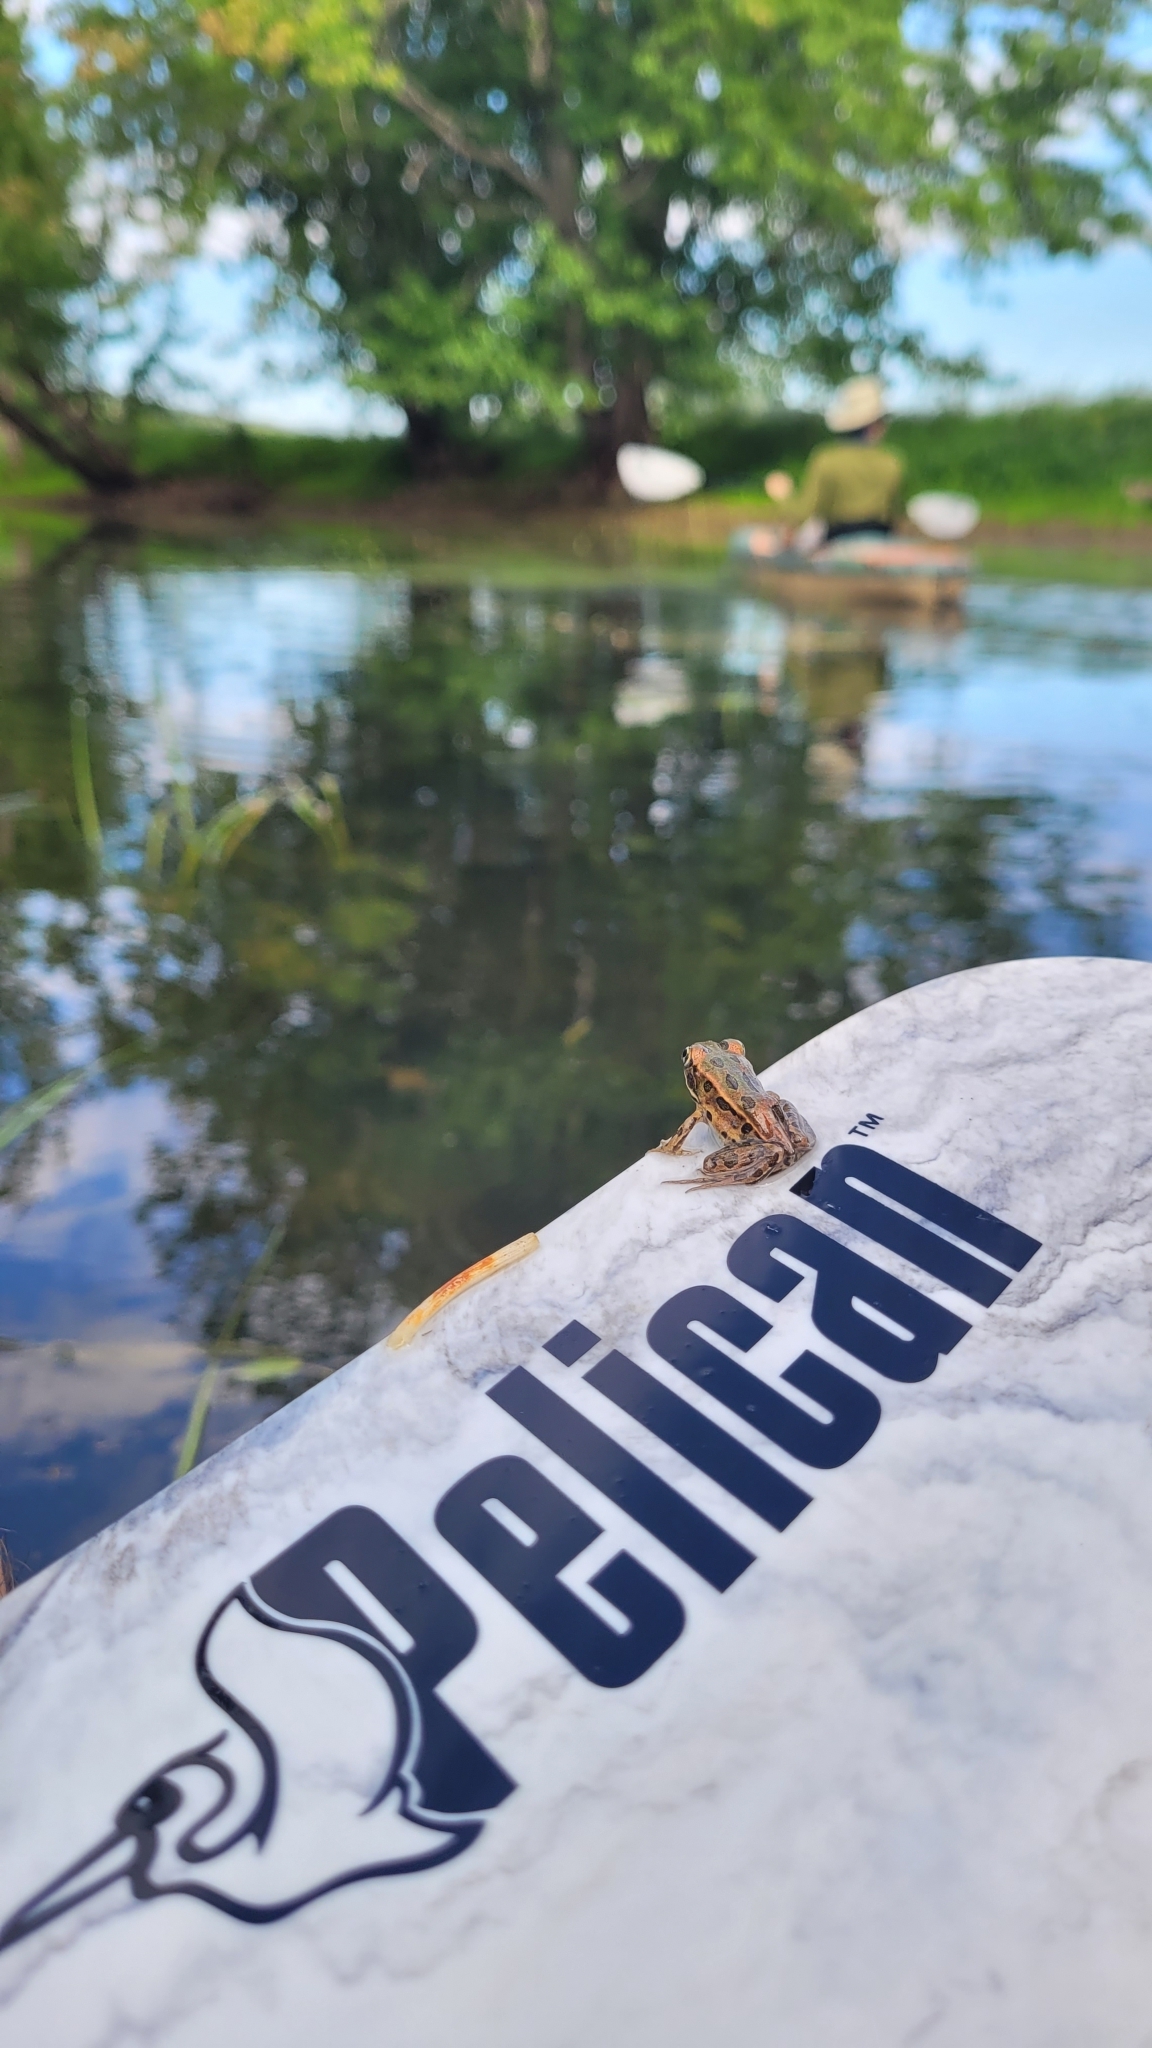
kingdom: Animalia
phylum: Chordata
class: Amphibia
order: Anura
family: Ranidae
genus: Lithobates
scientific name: Lithobates pipiens
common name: Northern leopard frog
